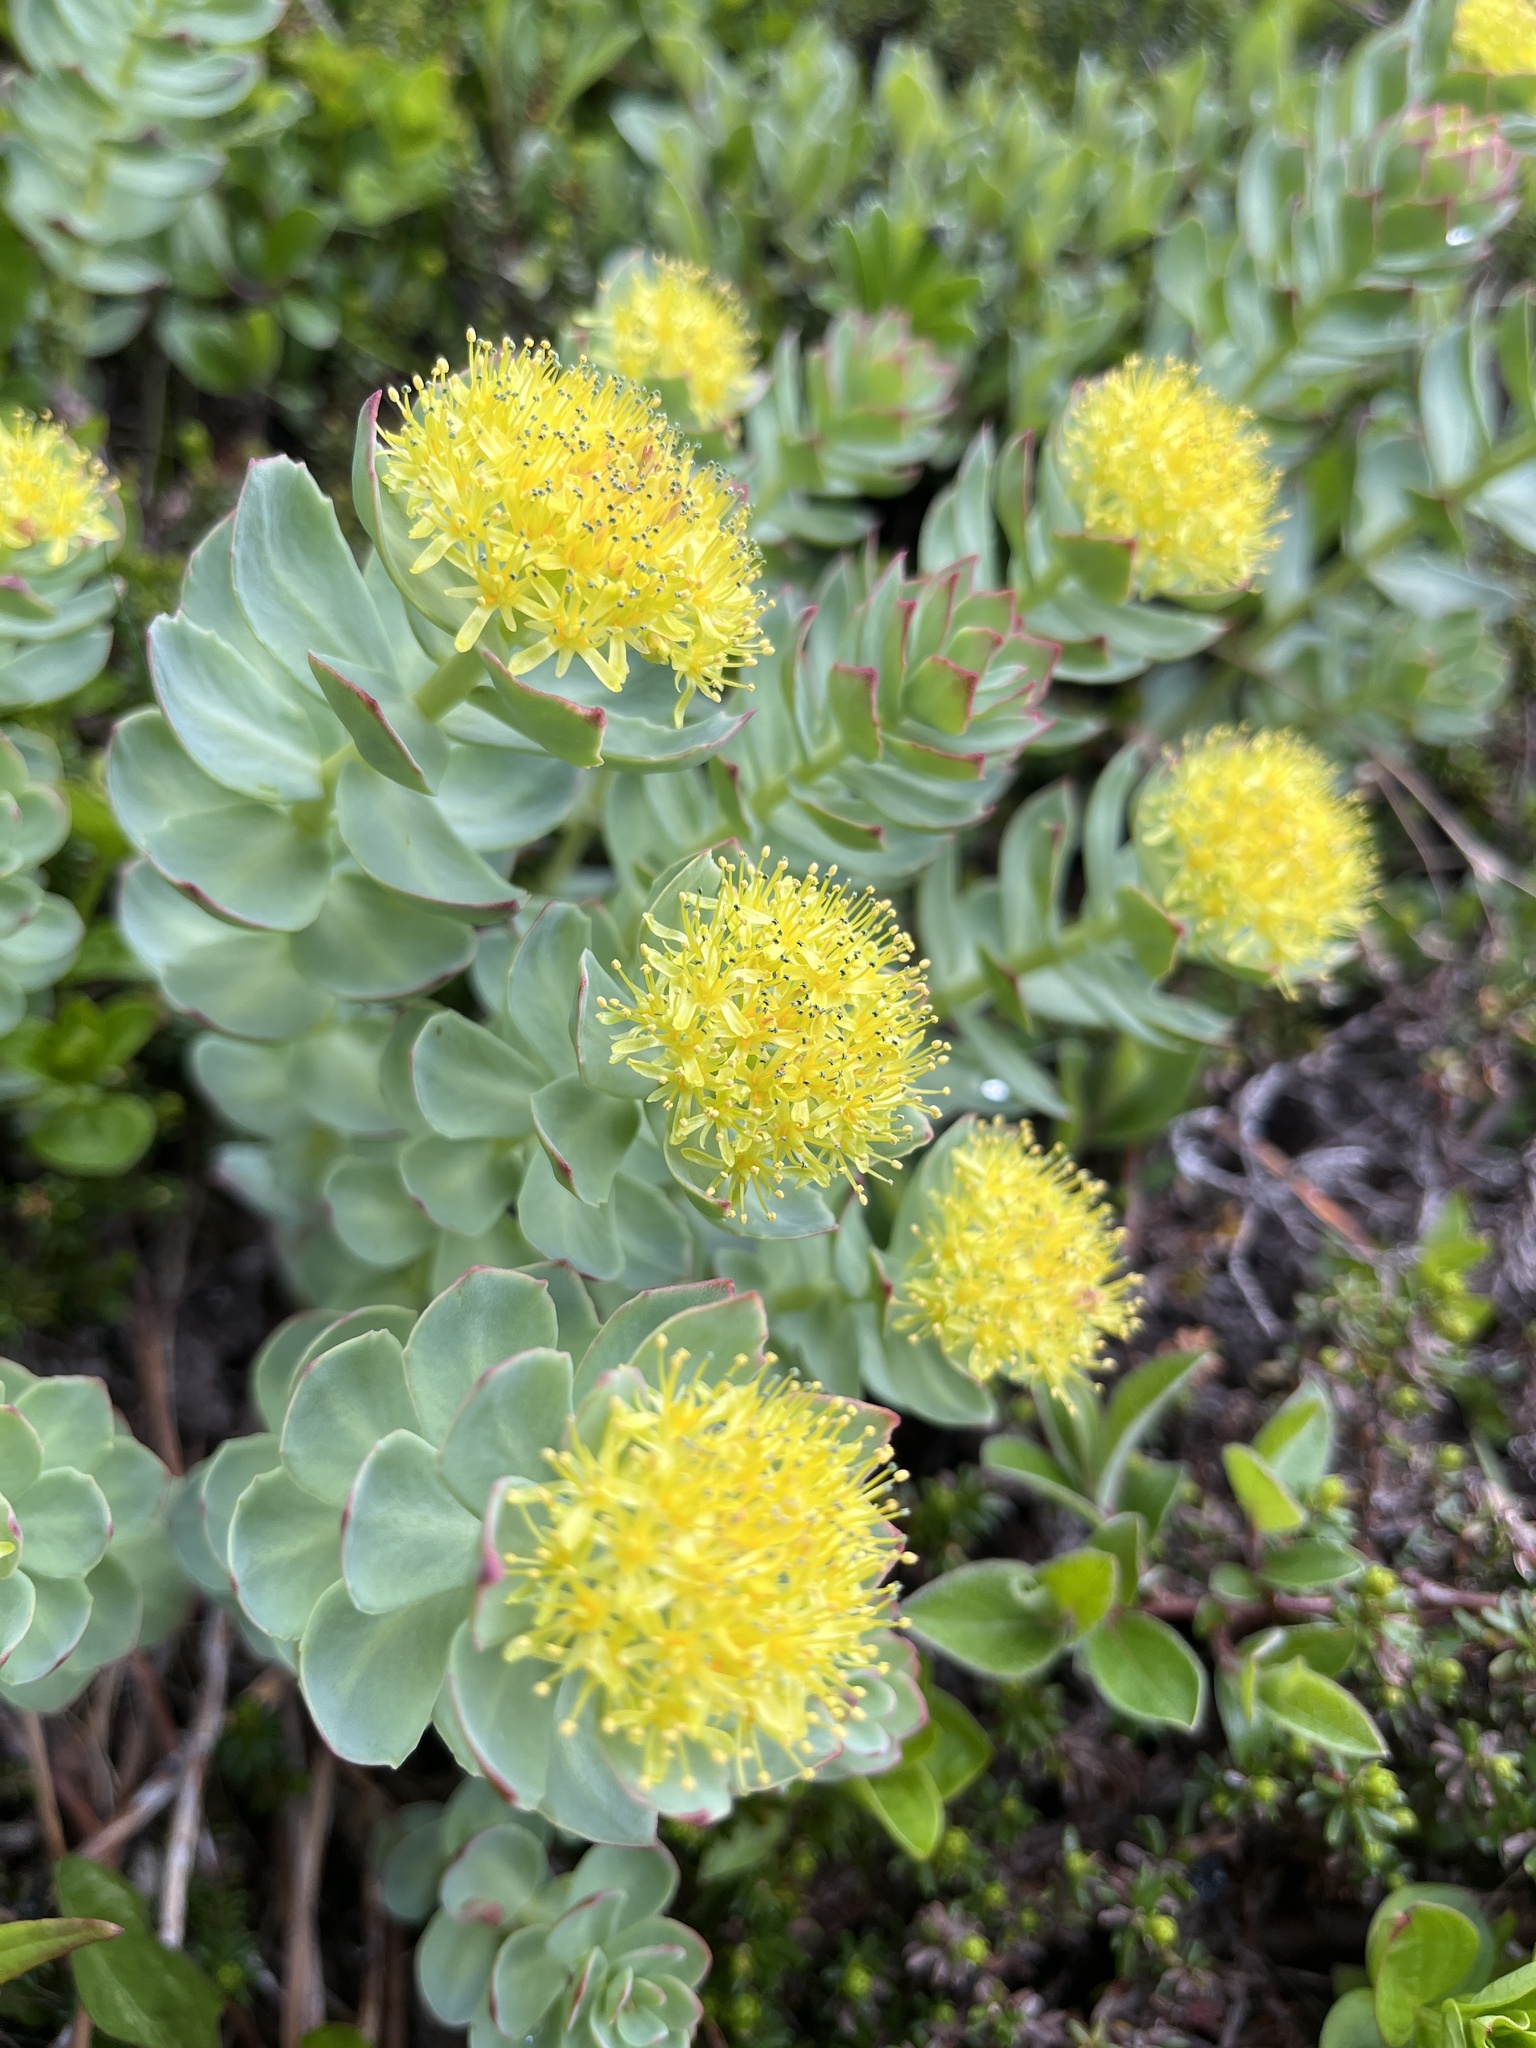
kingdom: Plantae
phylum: Tracheophyta
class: Magnoliopsida
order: Saxifragales
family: Crassulaceae
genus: Rhodiola
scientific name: Rhodiola rosea
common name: Roseroot
